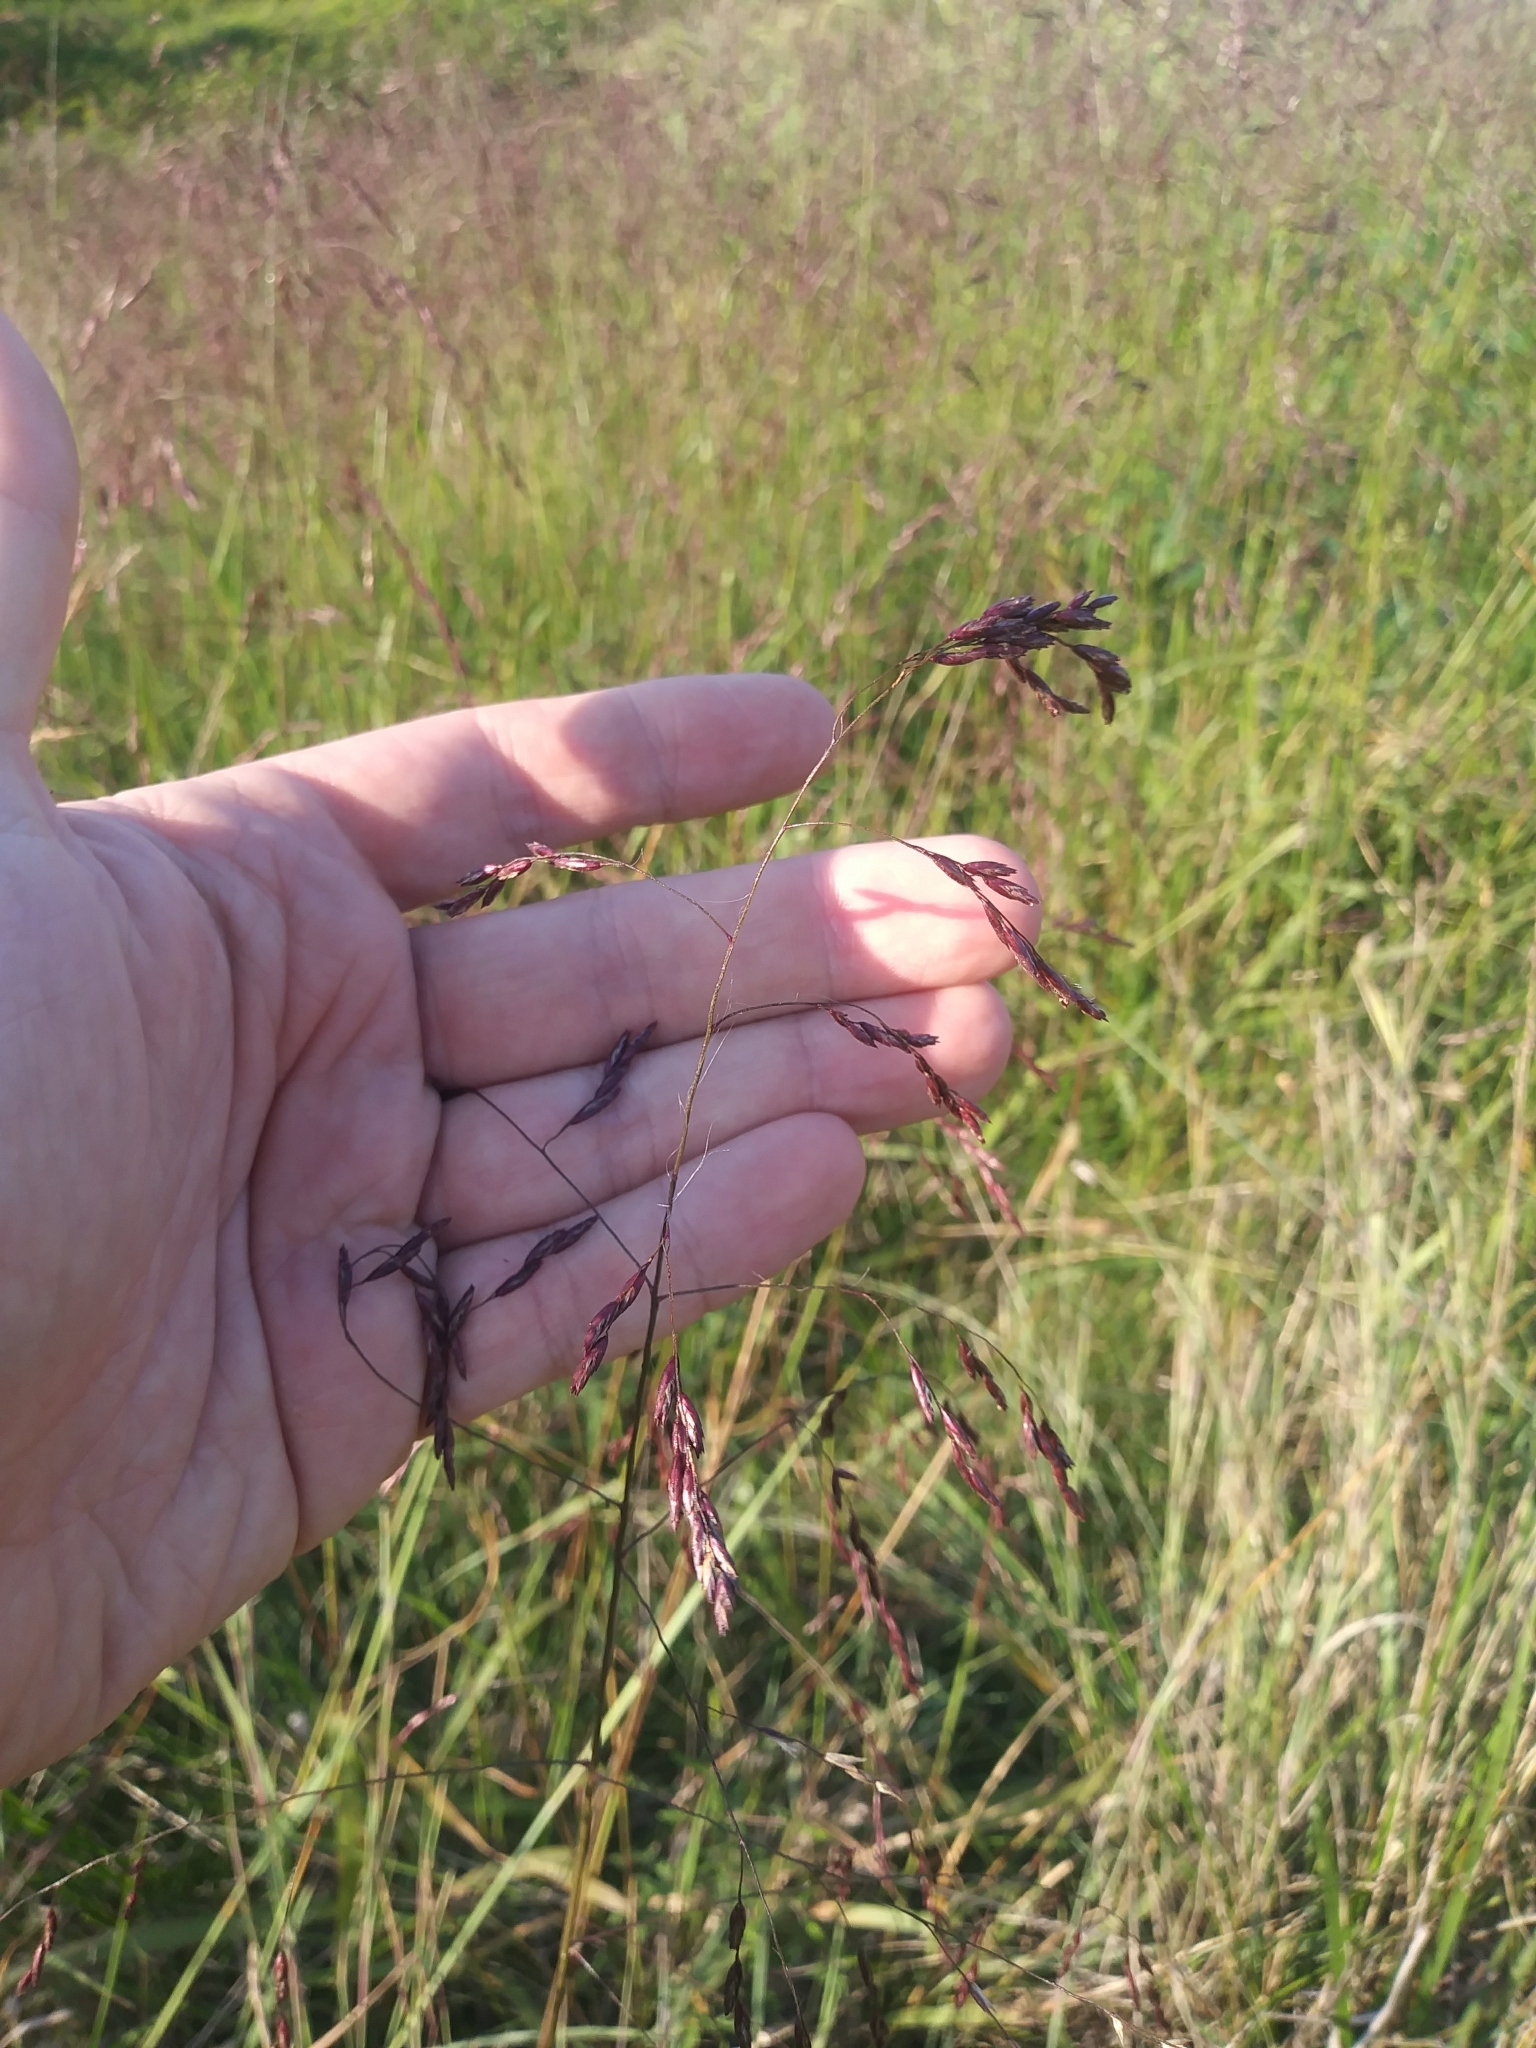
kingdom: Plantae
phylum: Tracheophyta
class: Liliopsida
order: Poales
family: Poaceae
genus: Tridens
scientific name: Tridens flavus
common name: Purpletop
